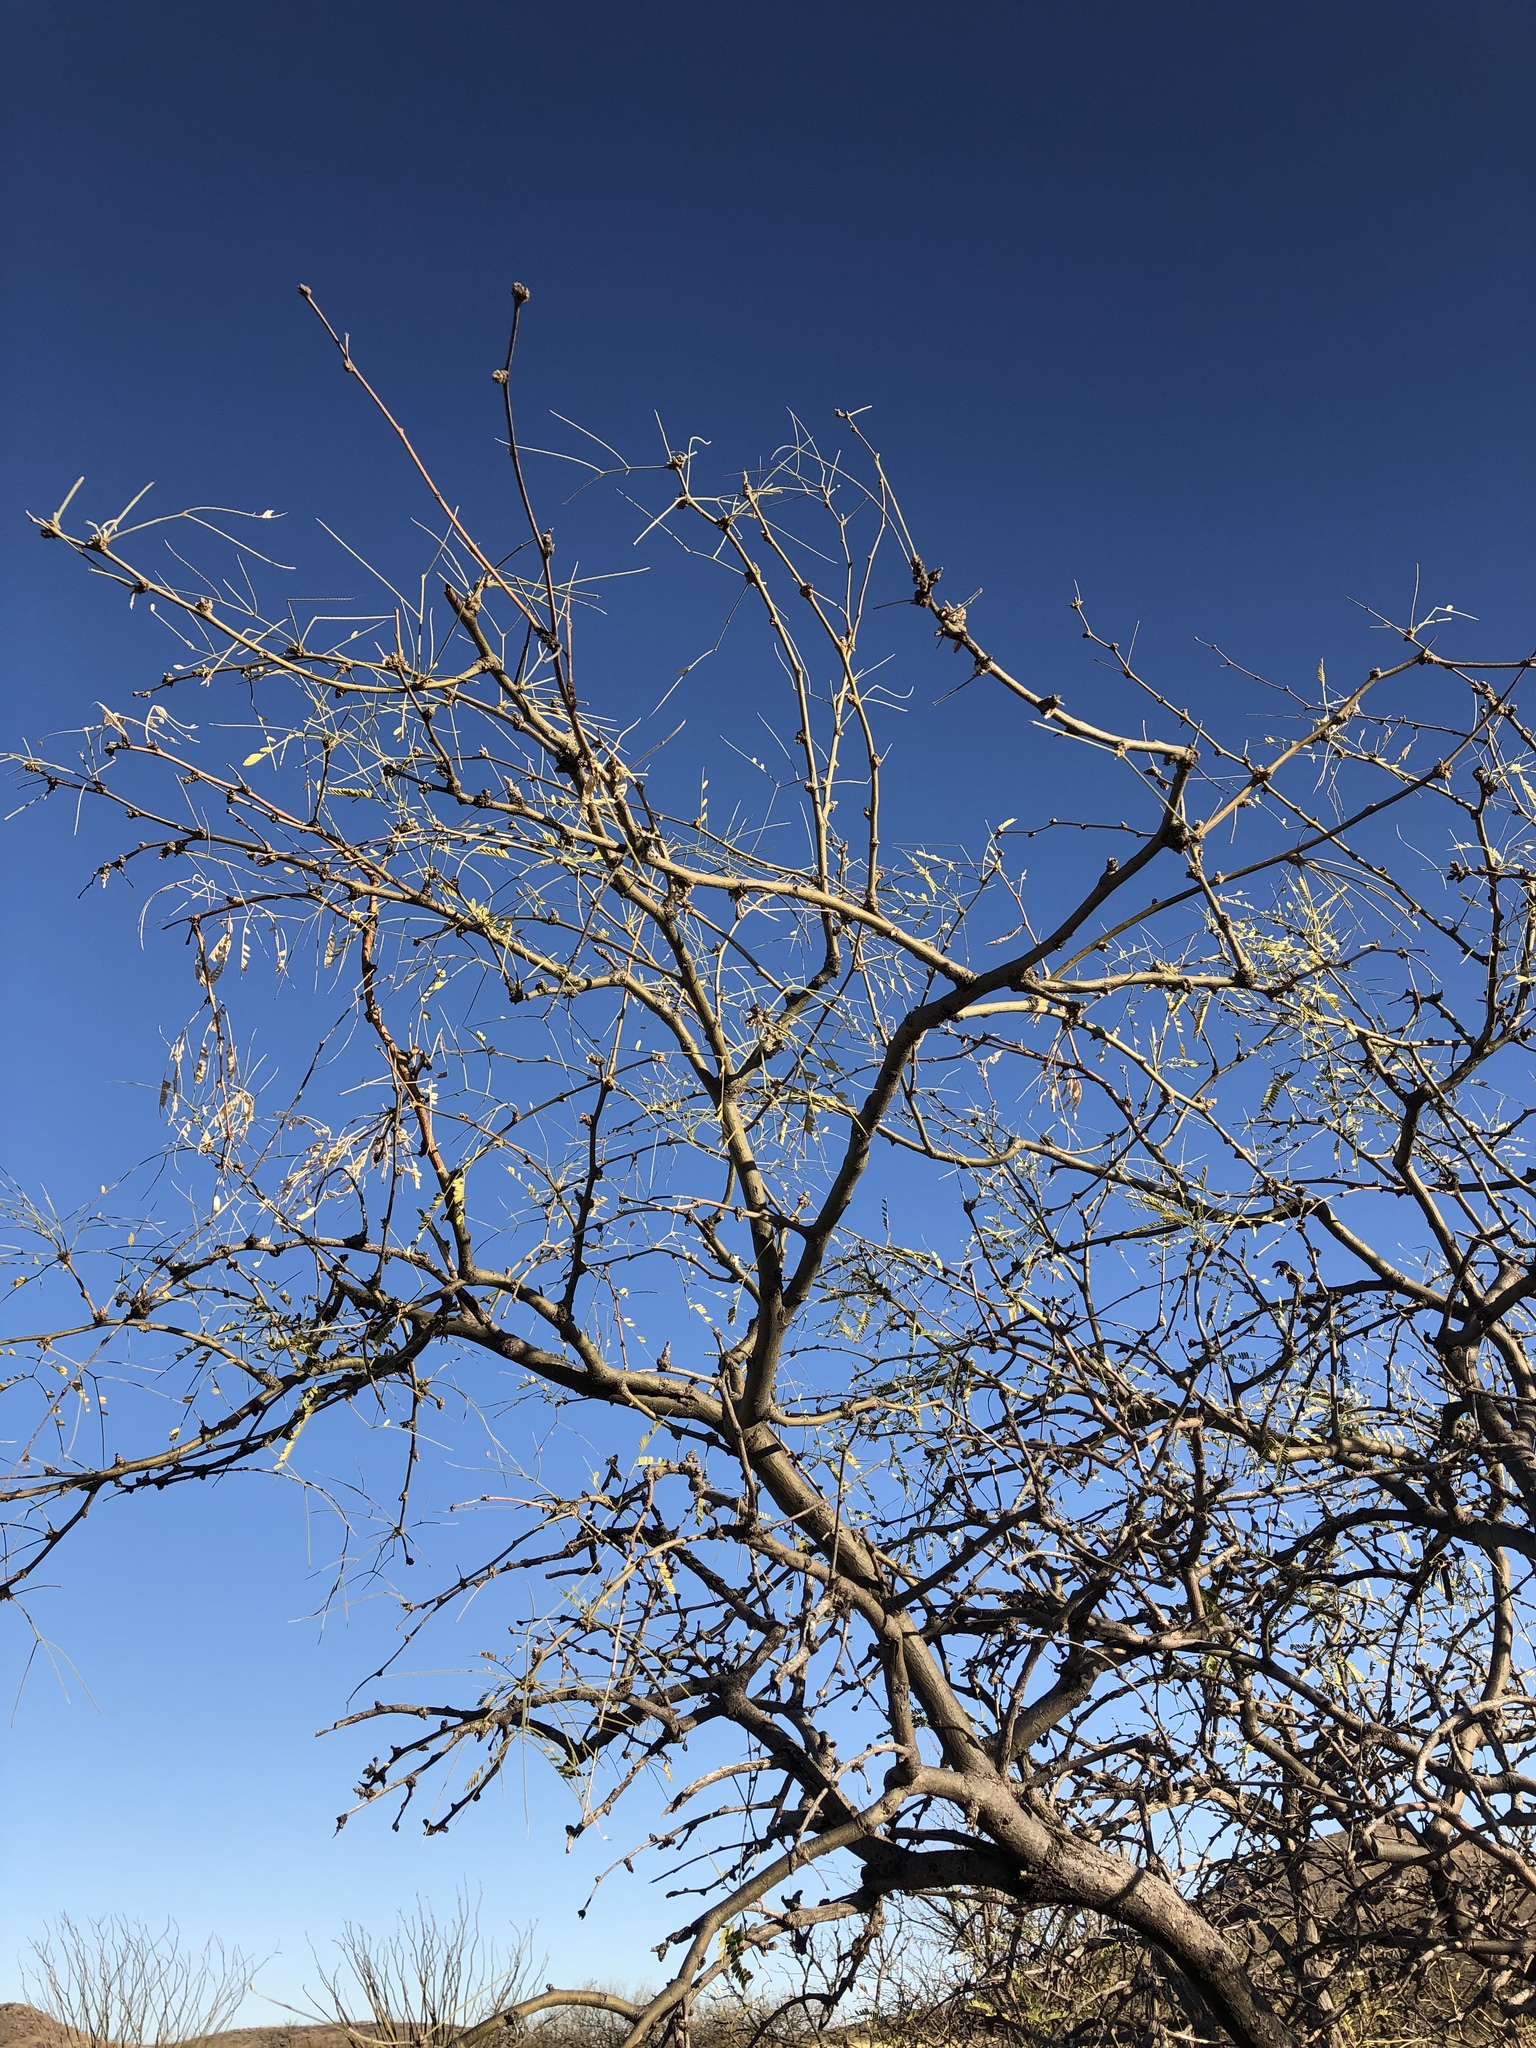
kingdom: Plantae
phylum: Tracheophyta
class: Magnoliopsida
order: Fabales
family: Fabaceae
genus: Prosopis
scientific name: Prosopis velutina
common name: Velvet mesquite
